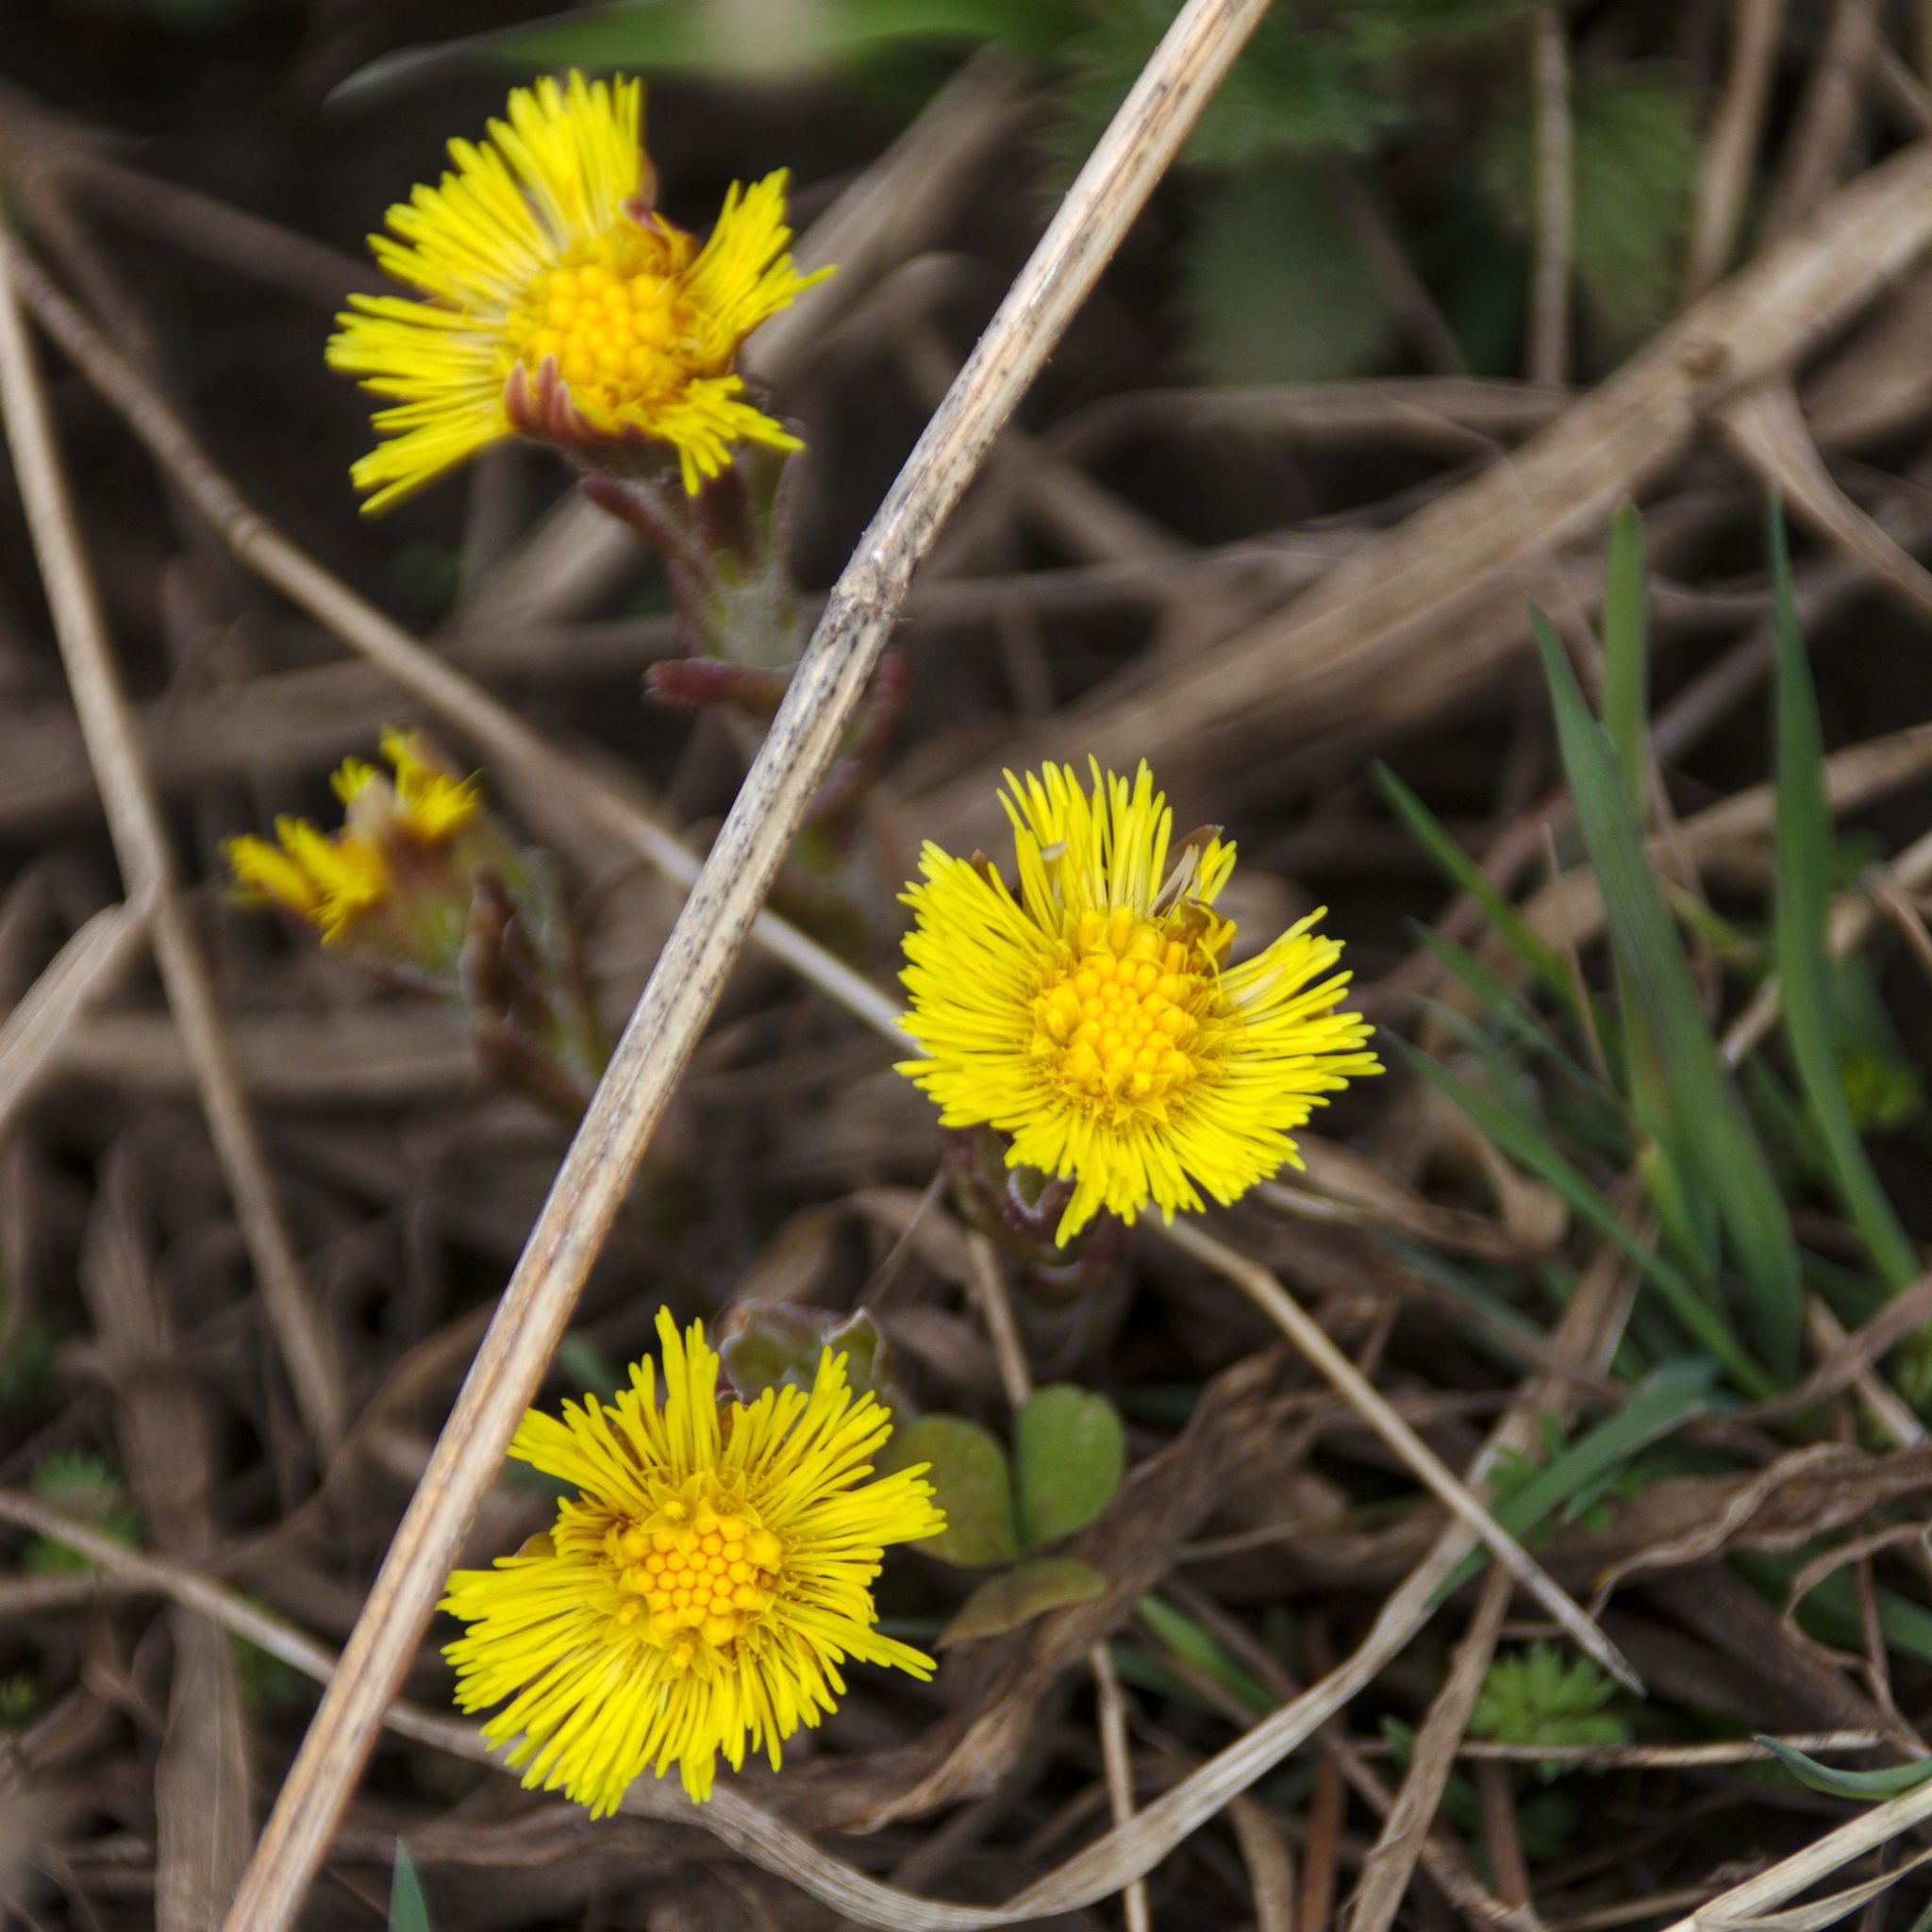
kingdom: Plantae
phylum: Tracheophyta
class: Magnoliopsida
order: Asterales
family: Asteraceae
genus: Tussilago
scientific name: Tussilago farfara
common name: Coltsfoot
